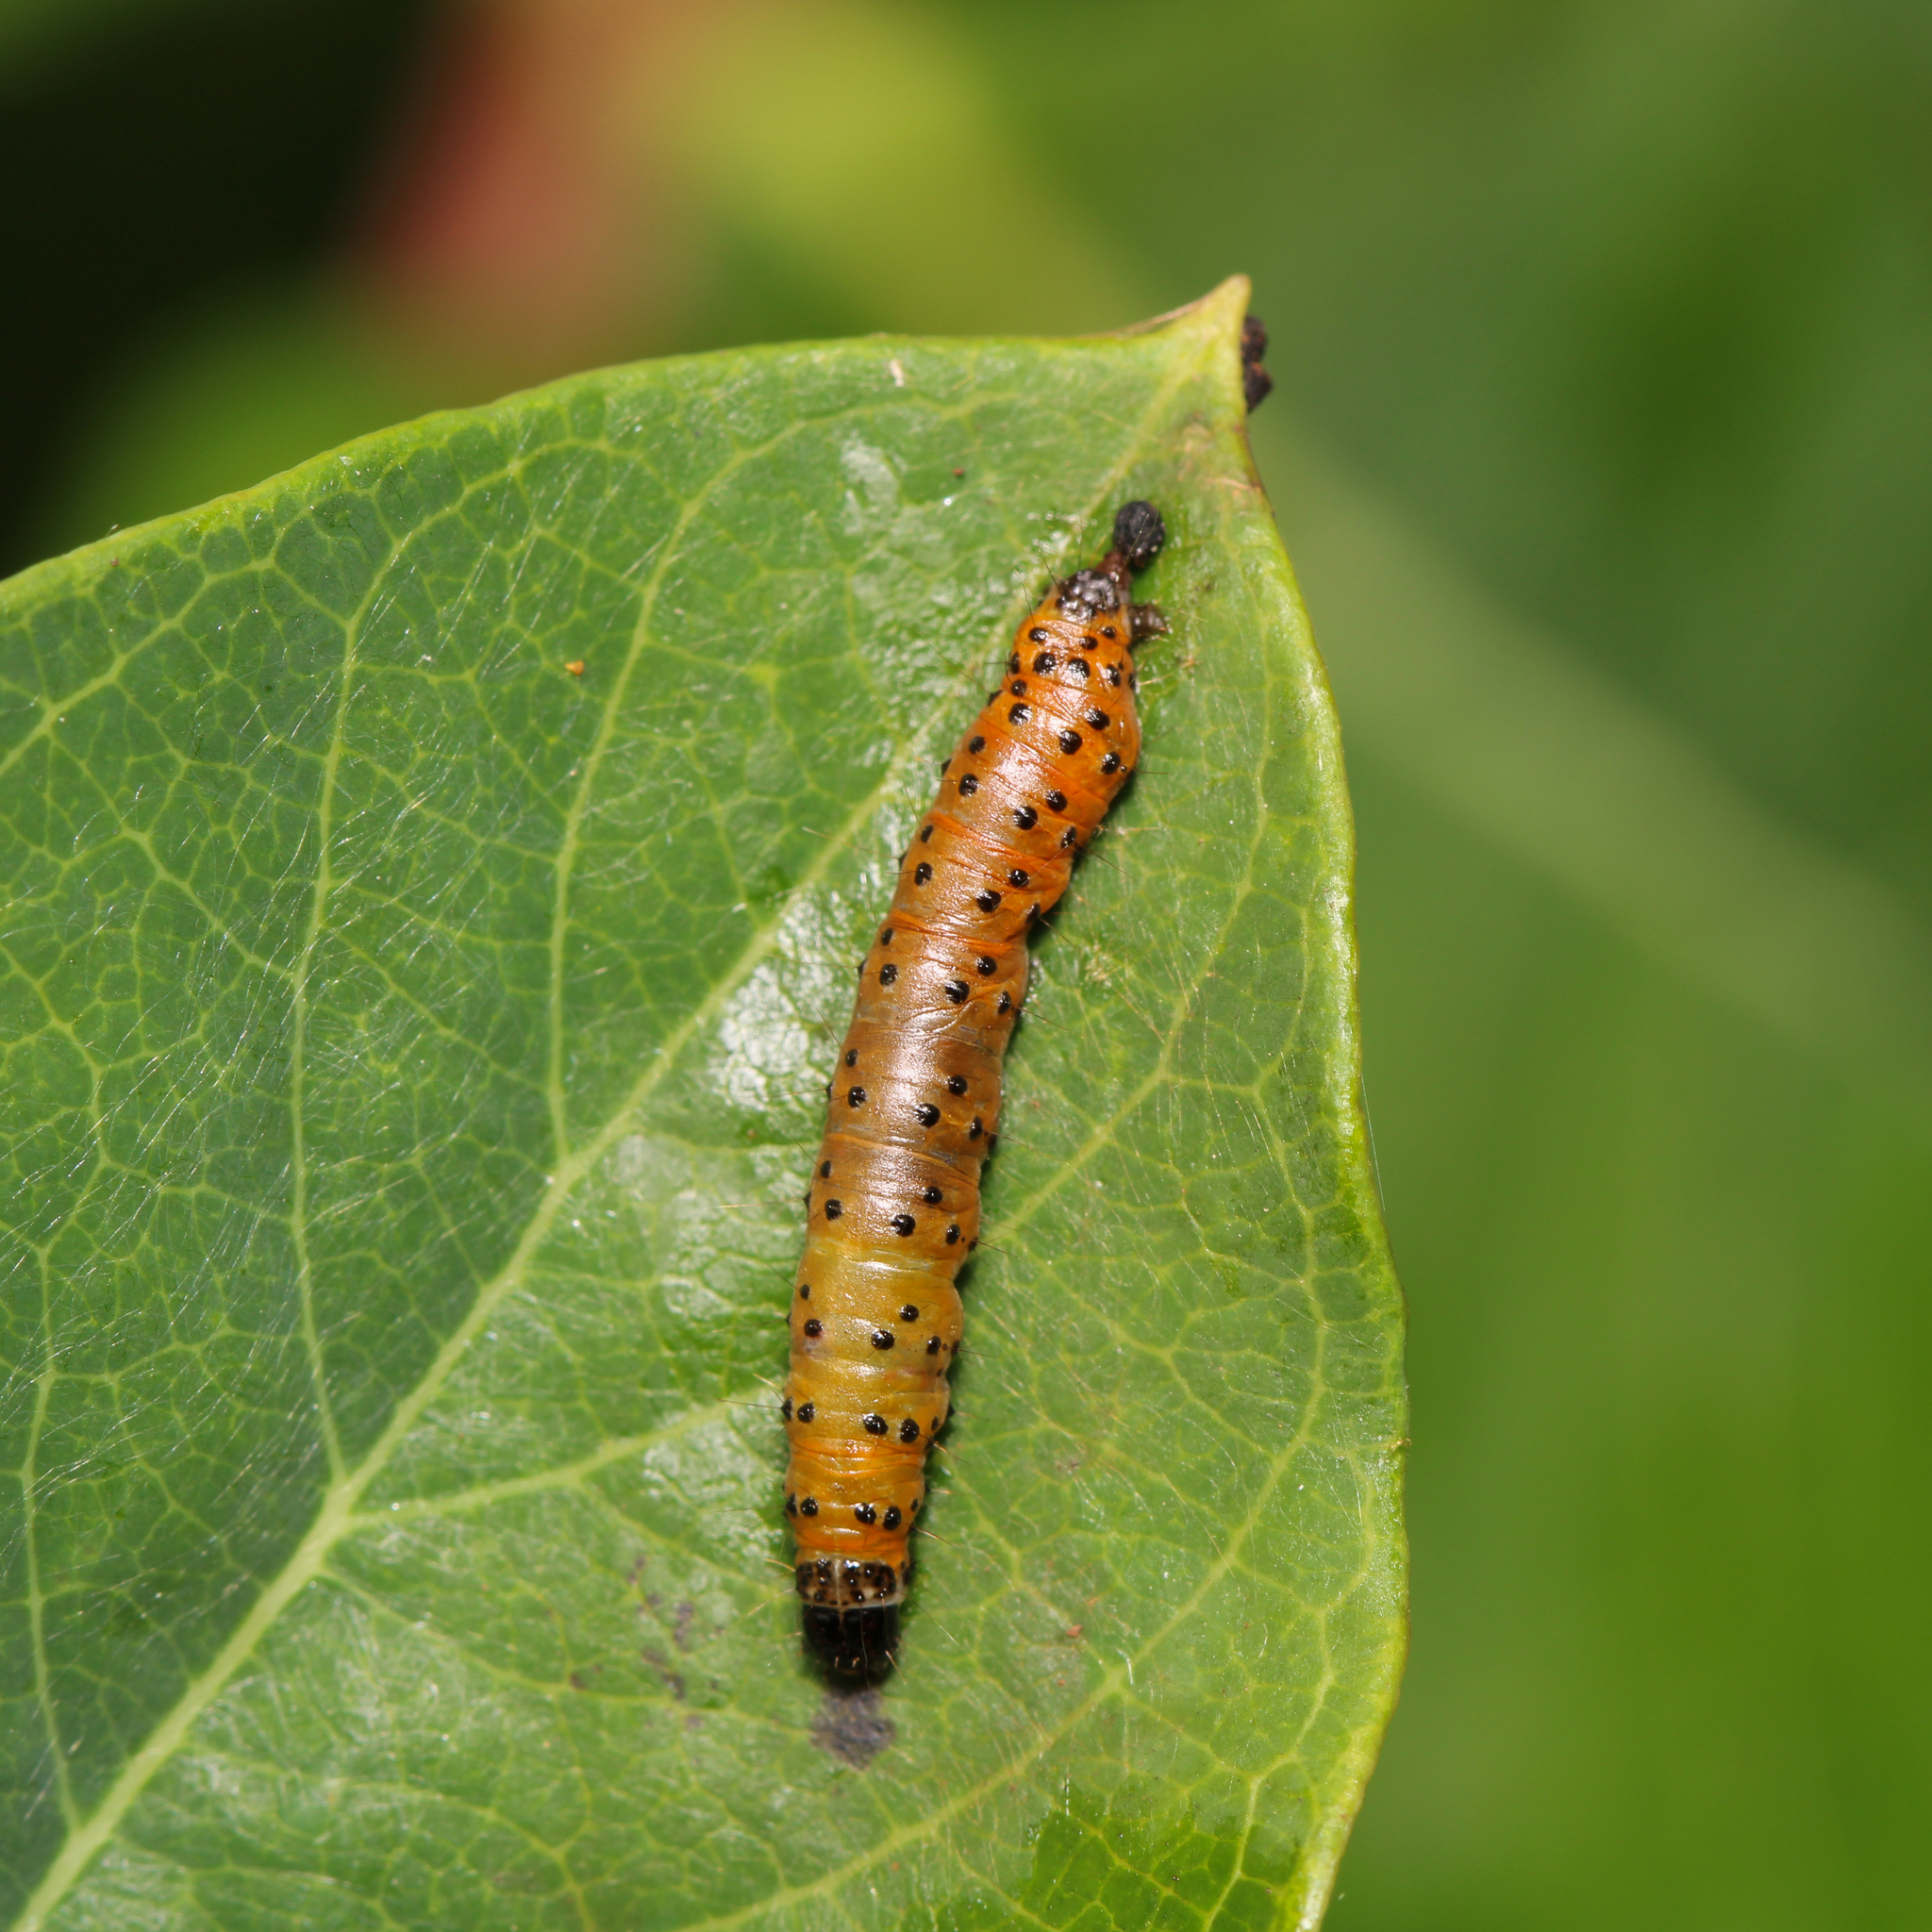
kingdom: Animalia
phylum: Arthropoda
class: Insecta
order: Lepidoptera
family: Crambidae
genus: Saucrobotys
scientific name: Saucrobotys futilalis
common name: Dogbane saucrobotys moth
